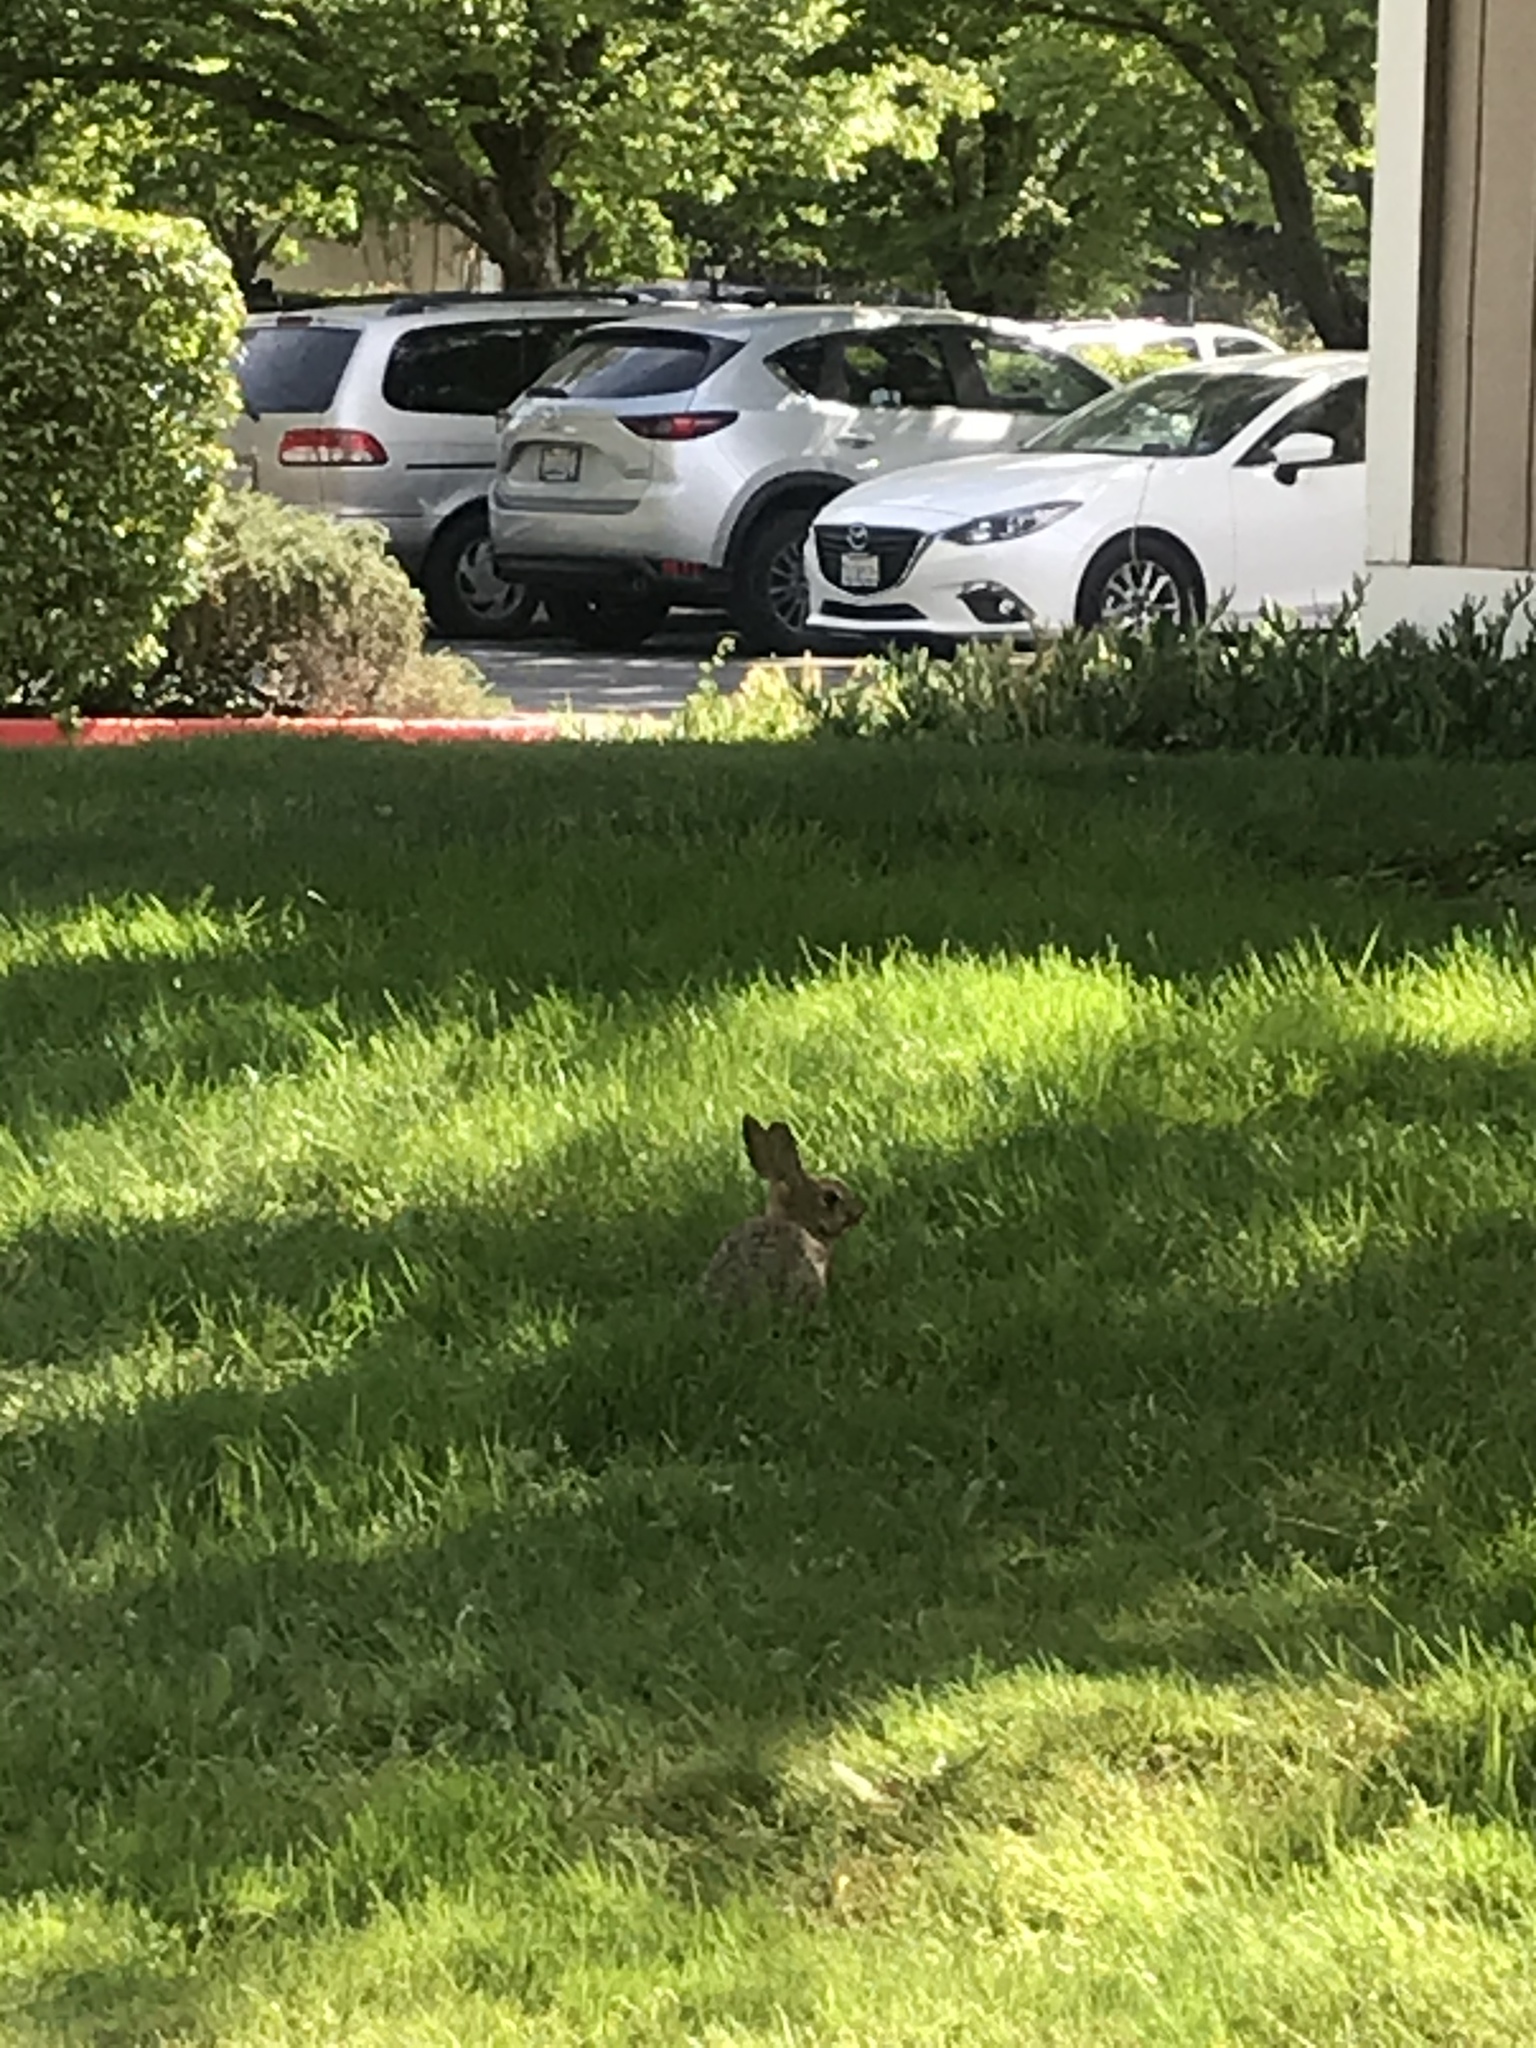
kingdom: Animalia
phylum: Chordata
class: Mammalia
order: Lagomorpha
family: Leporidae
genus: Sylvilagus
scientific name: Sylvilagus audubonii
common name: Desert cottontail
